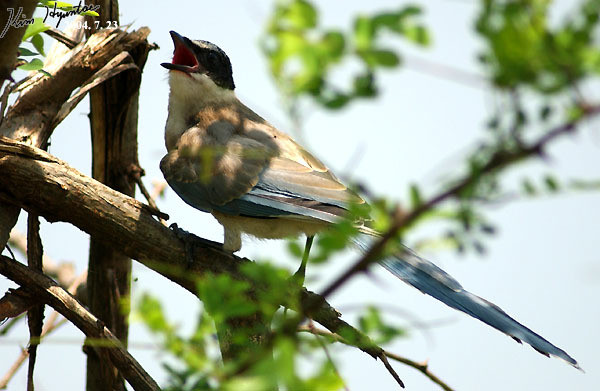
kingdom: Animalia
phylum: Chordata
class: Aves
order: Passeriformes
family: Corvidae
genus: Cyanopica
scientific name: Cyanopica cyanus
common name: Azure-winged magpie
